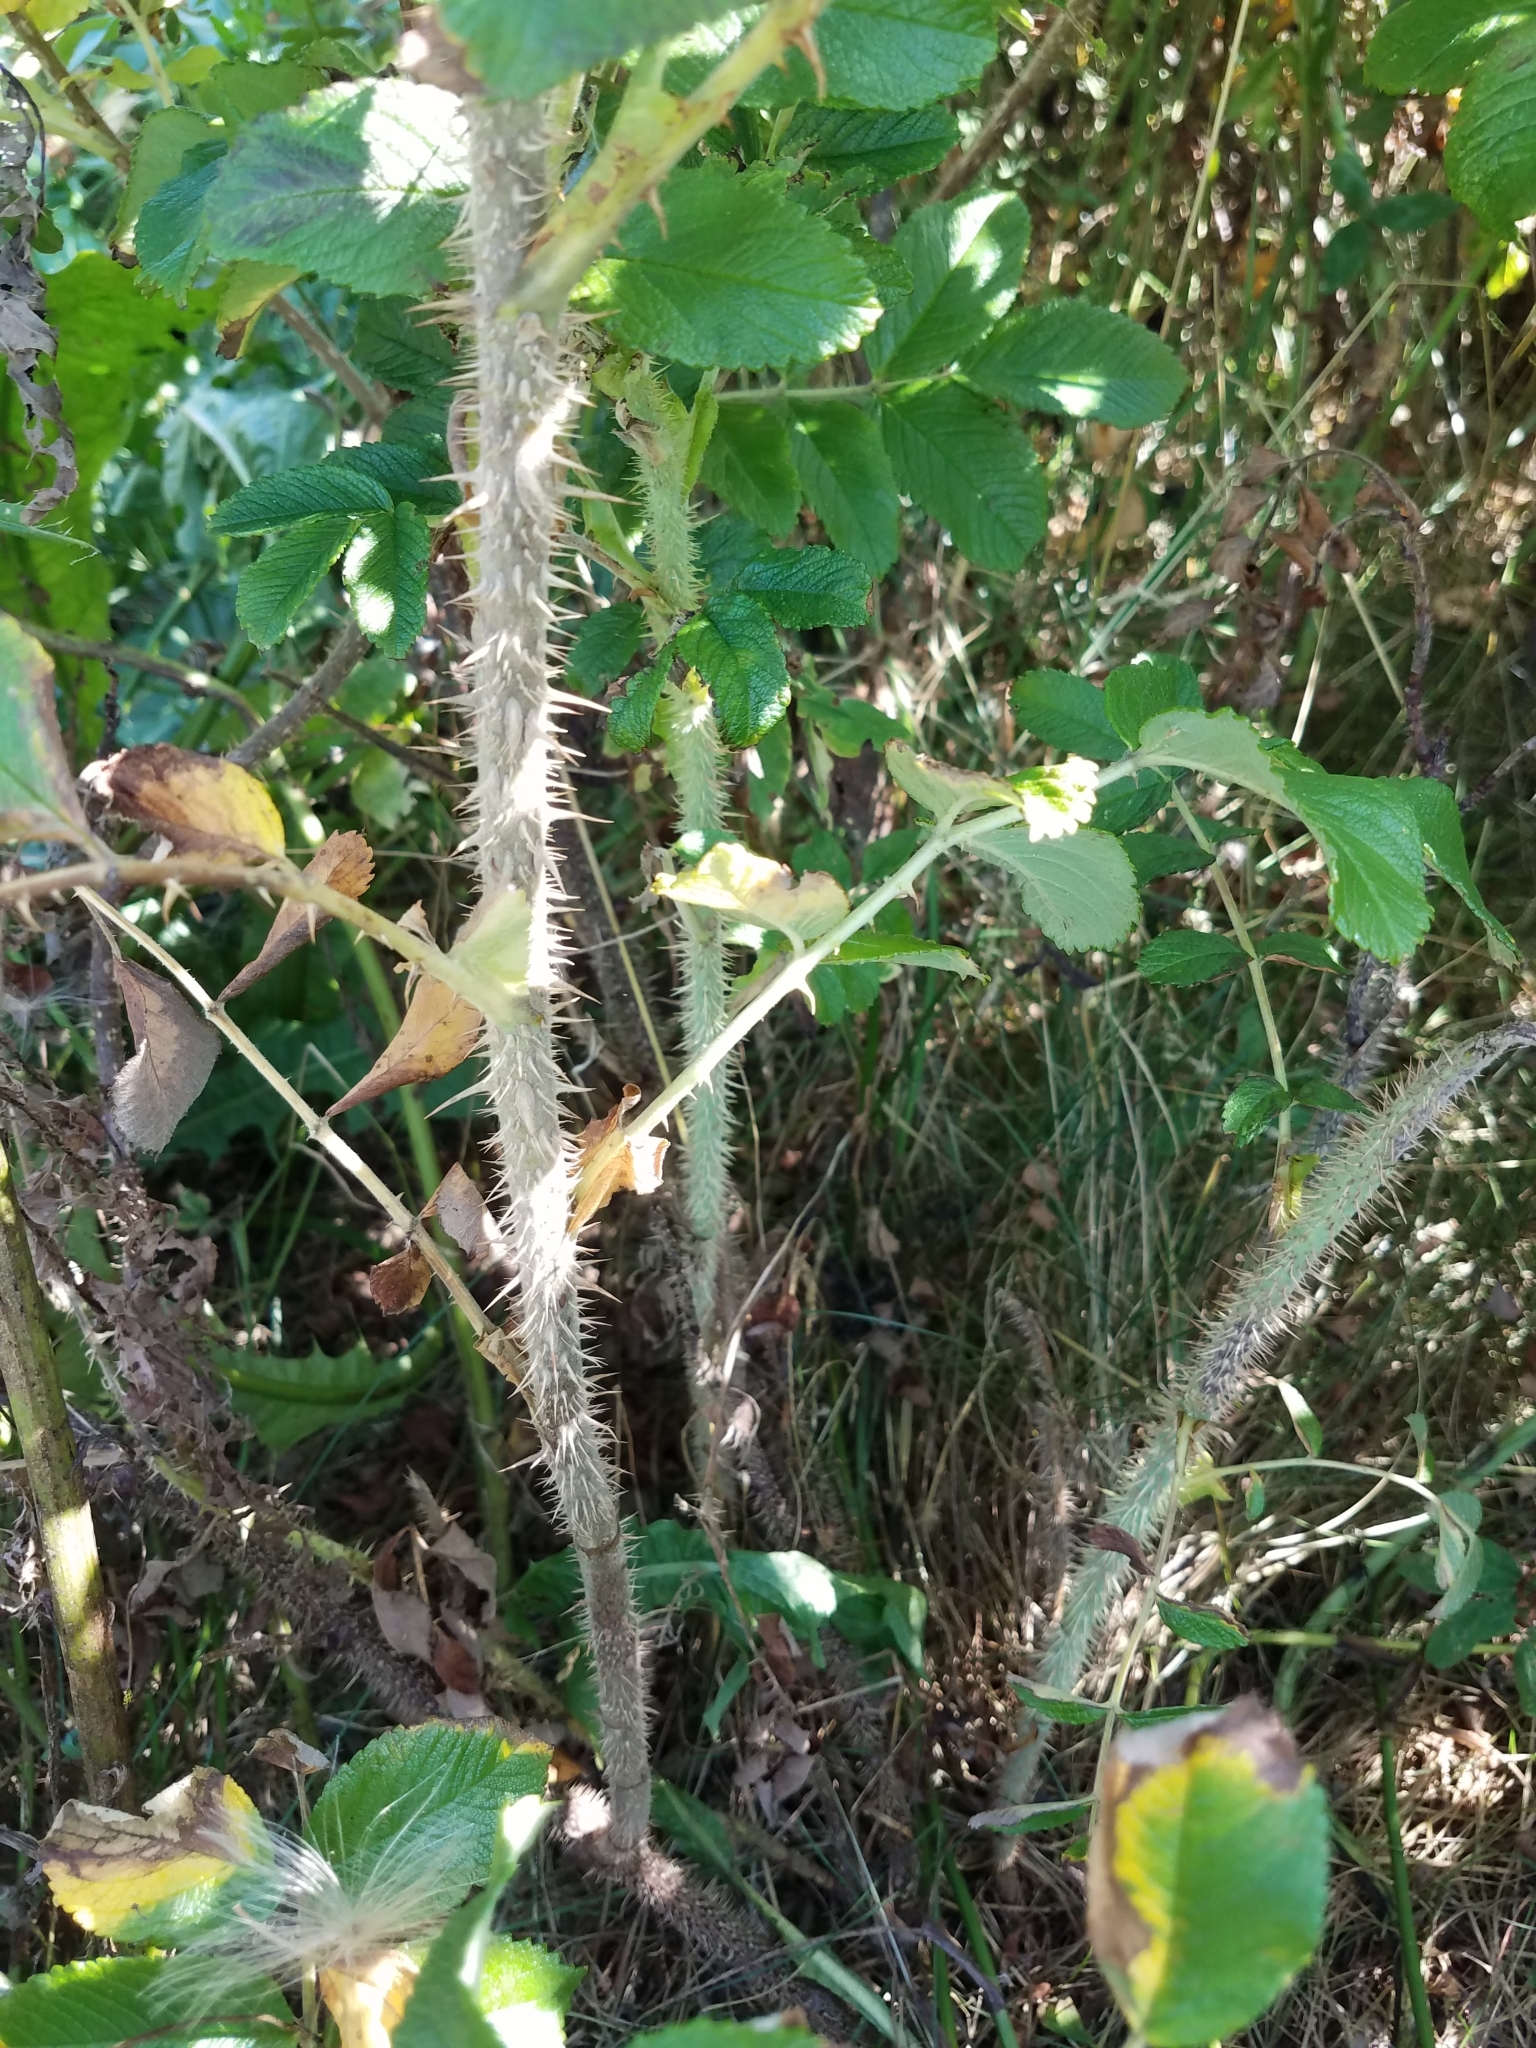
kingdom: Plantae
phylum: Tracheophyta
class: Magnoliopsida
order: Rosales
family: Rosaceae
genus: Rosa
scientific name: Rosa rugosa
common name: Japanese rose
